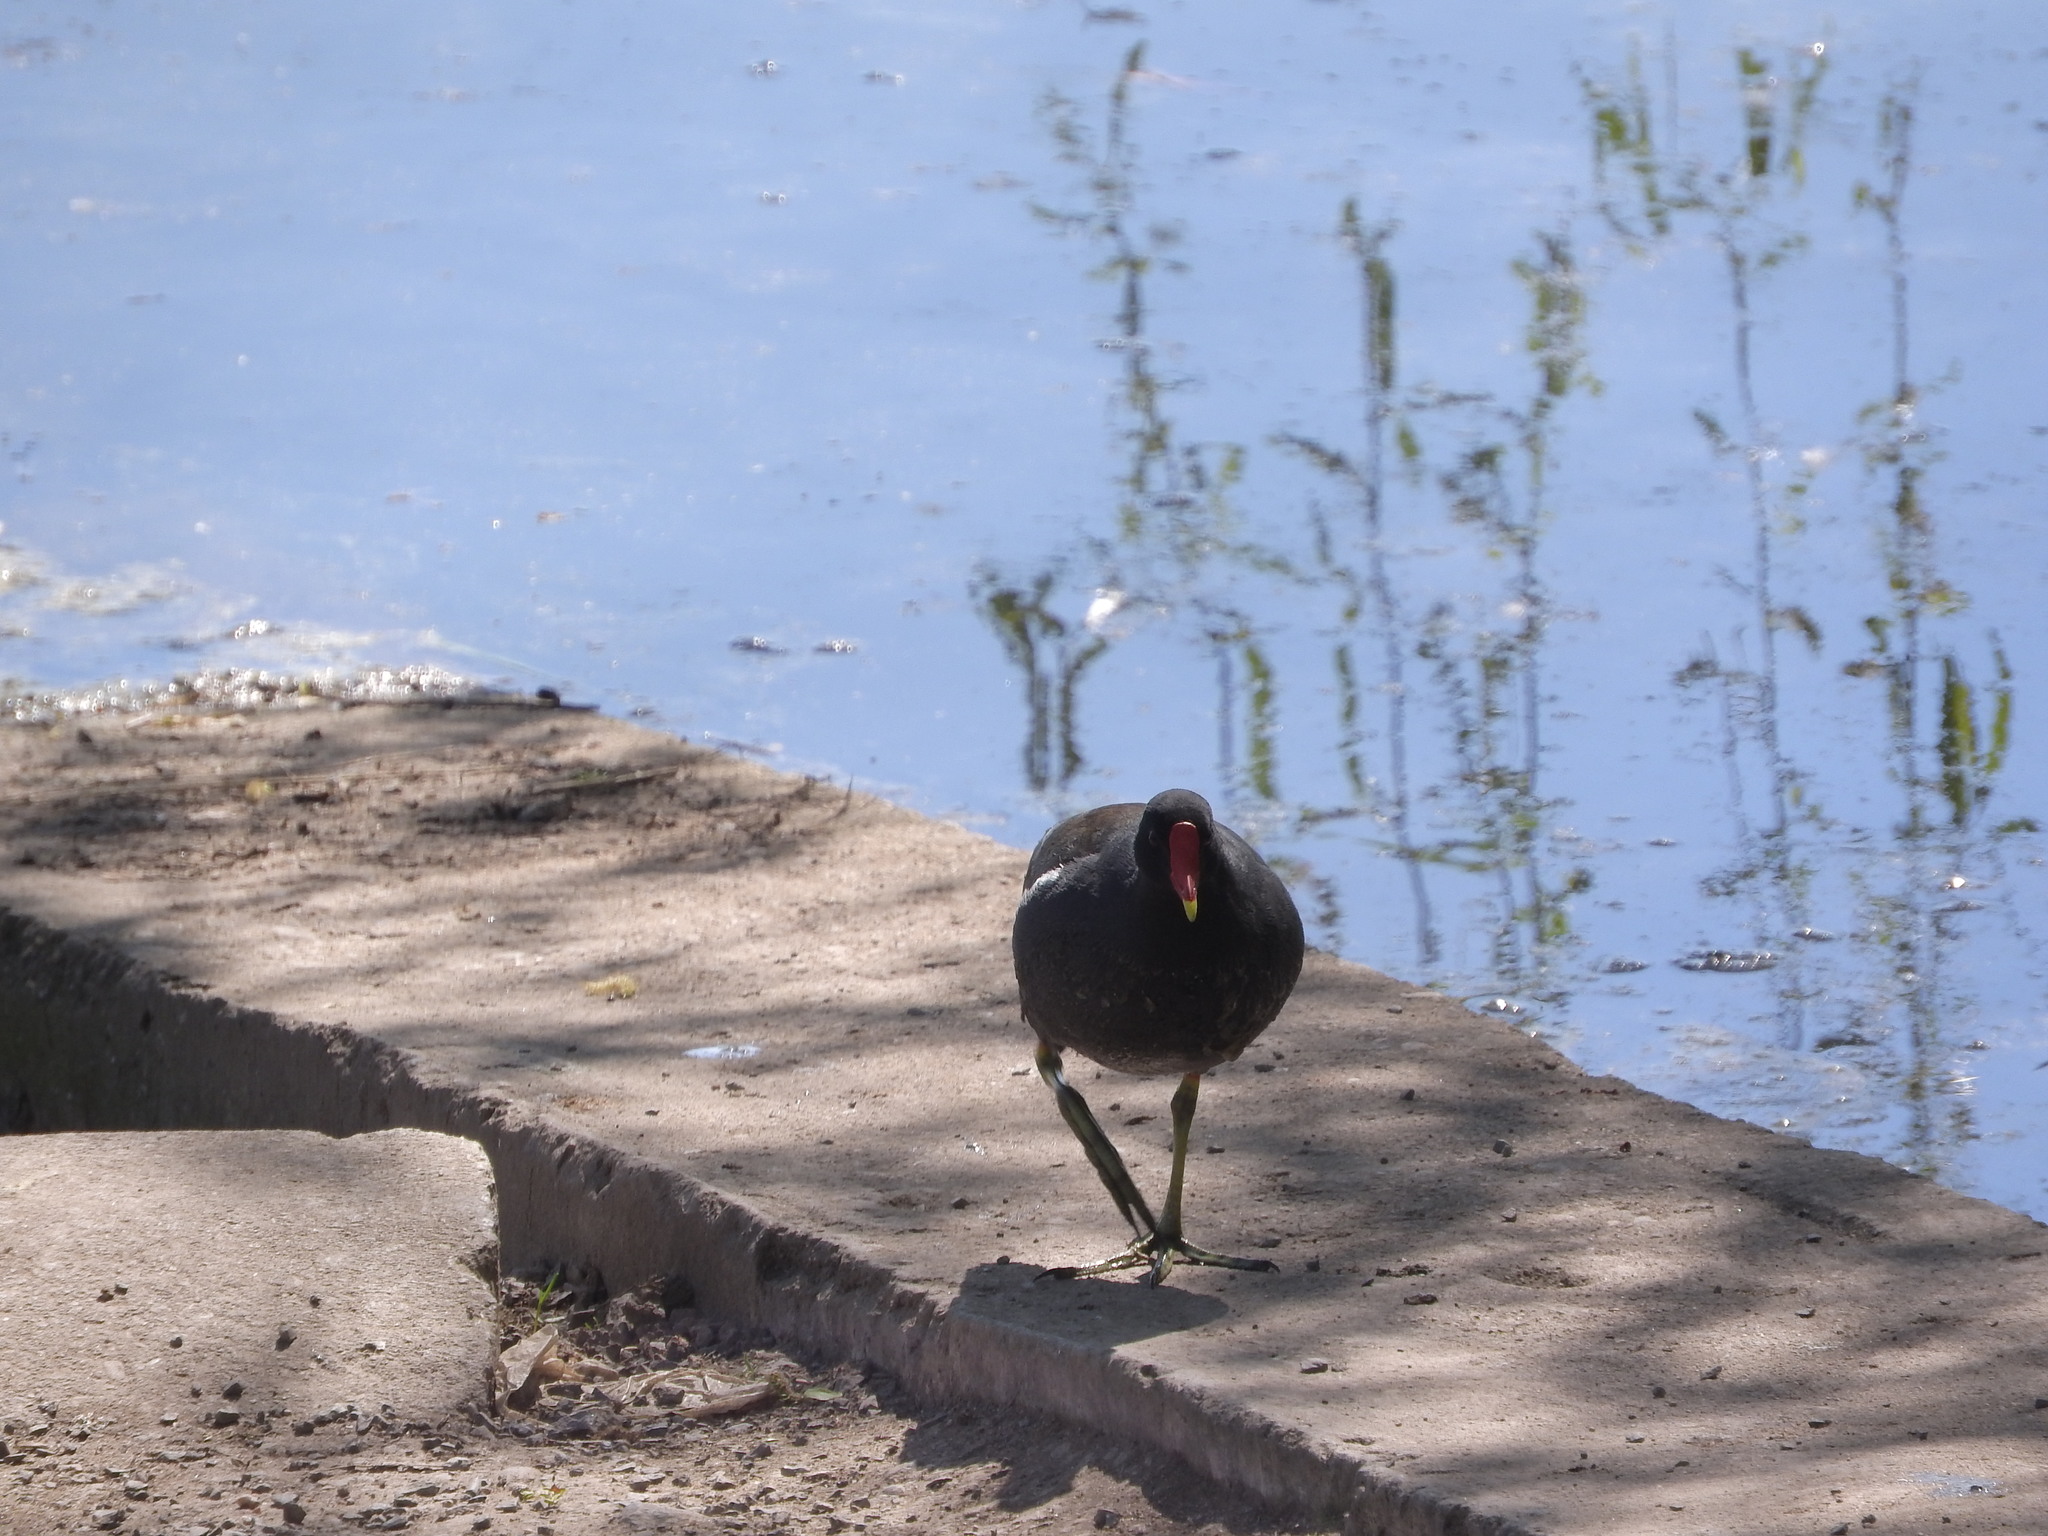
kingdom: Animalia
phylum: Chordata
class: Aves
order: Gruiformes
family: Rallidae
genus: Gallinula
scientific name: Gallinula chloropus
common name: Common moorhen
